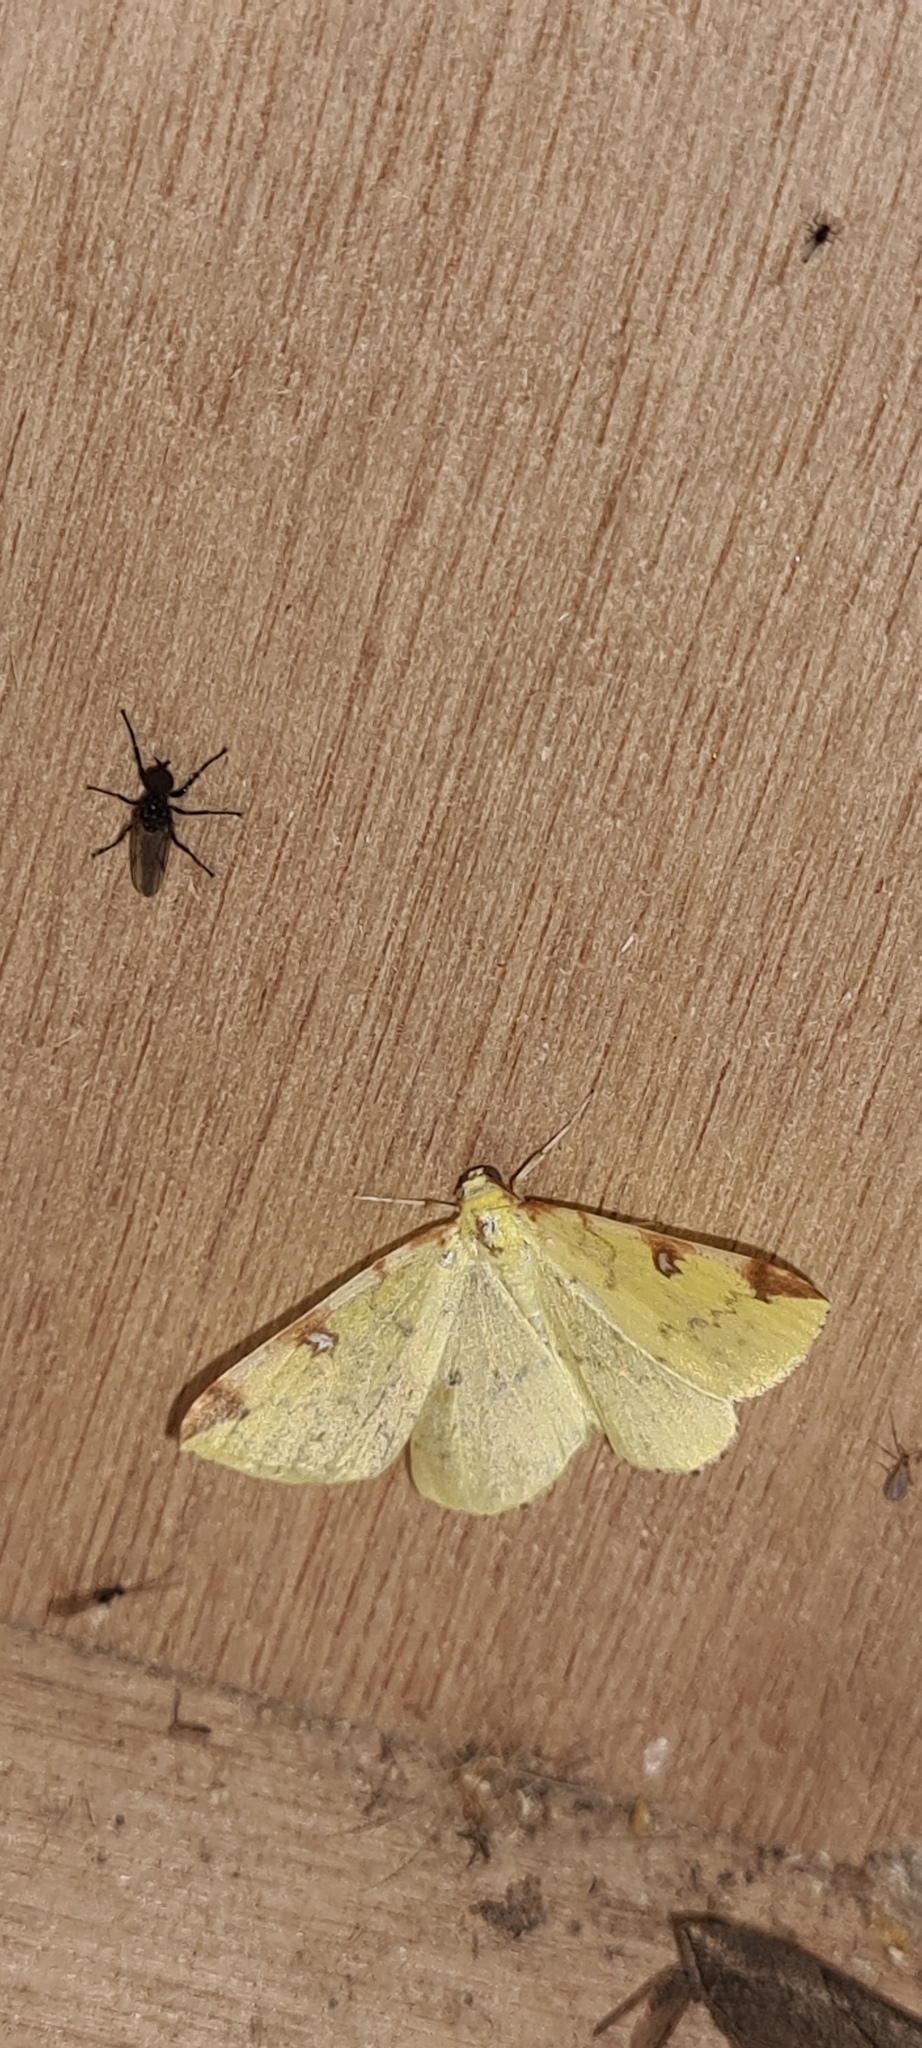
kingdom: Animalia
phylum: Arthropoda
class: Insecta
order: Lepidoptera
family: Geometridae
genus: Opisthograptis
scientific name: Opisthograptis luteolata
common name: Brimstone moth
